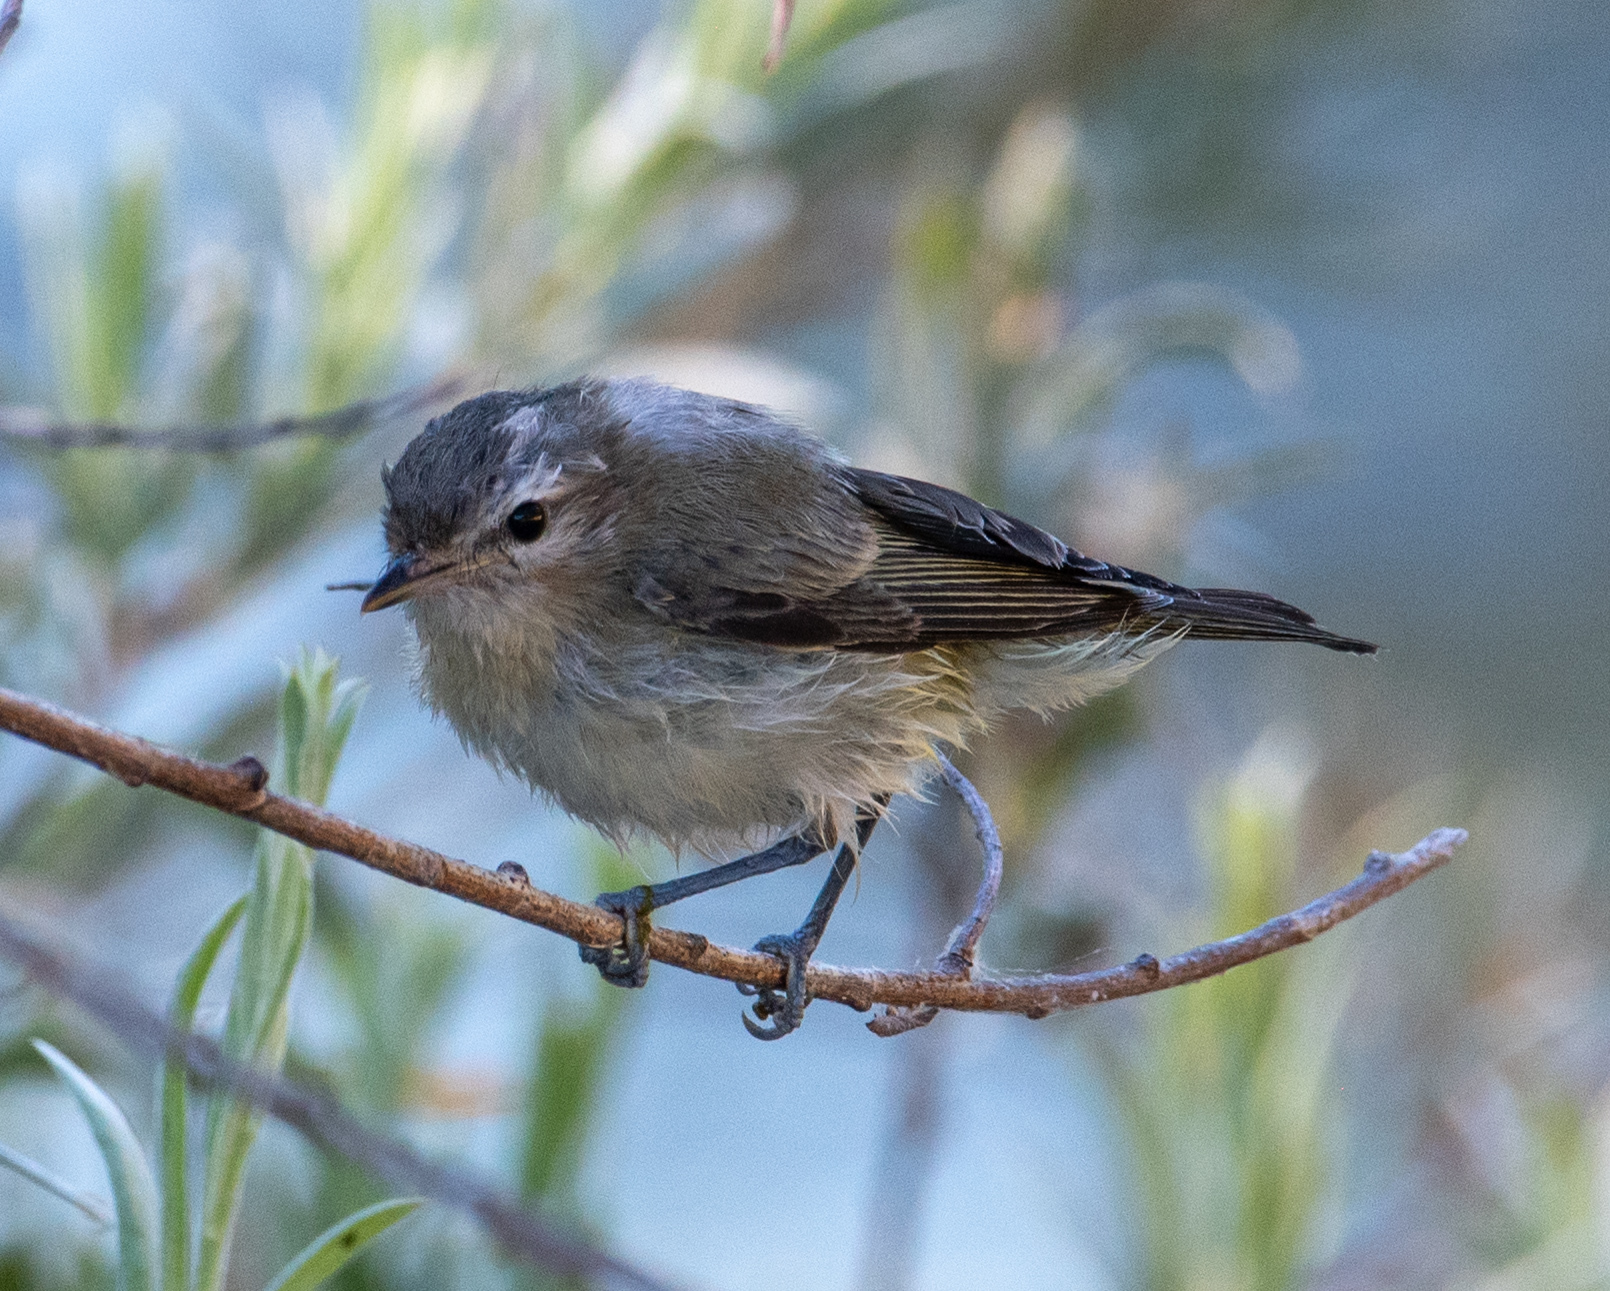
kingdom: Animalia
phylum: Chordata
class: Aves
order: Passeriformes
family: Vireonidae
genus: Vireo
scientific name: Vireo gilvus
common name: Warbling vireo
